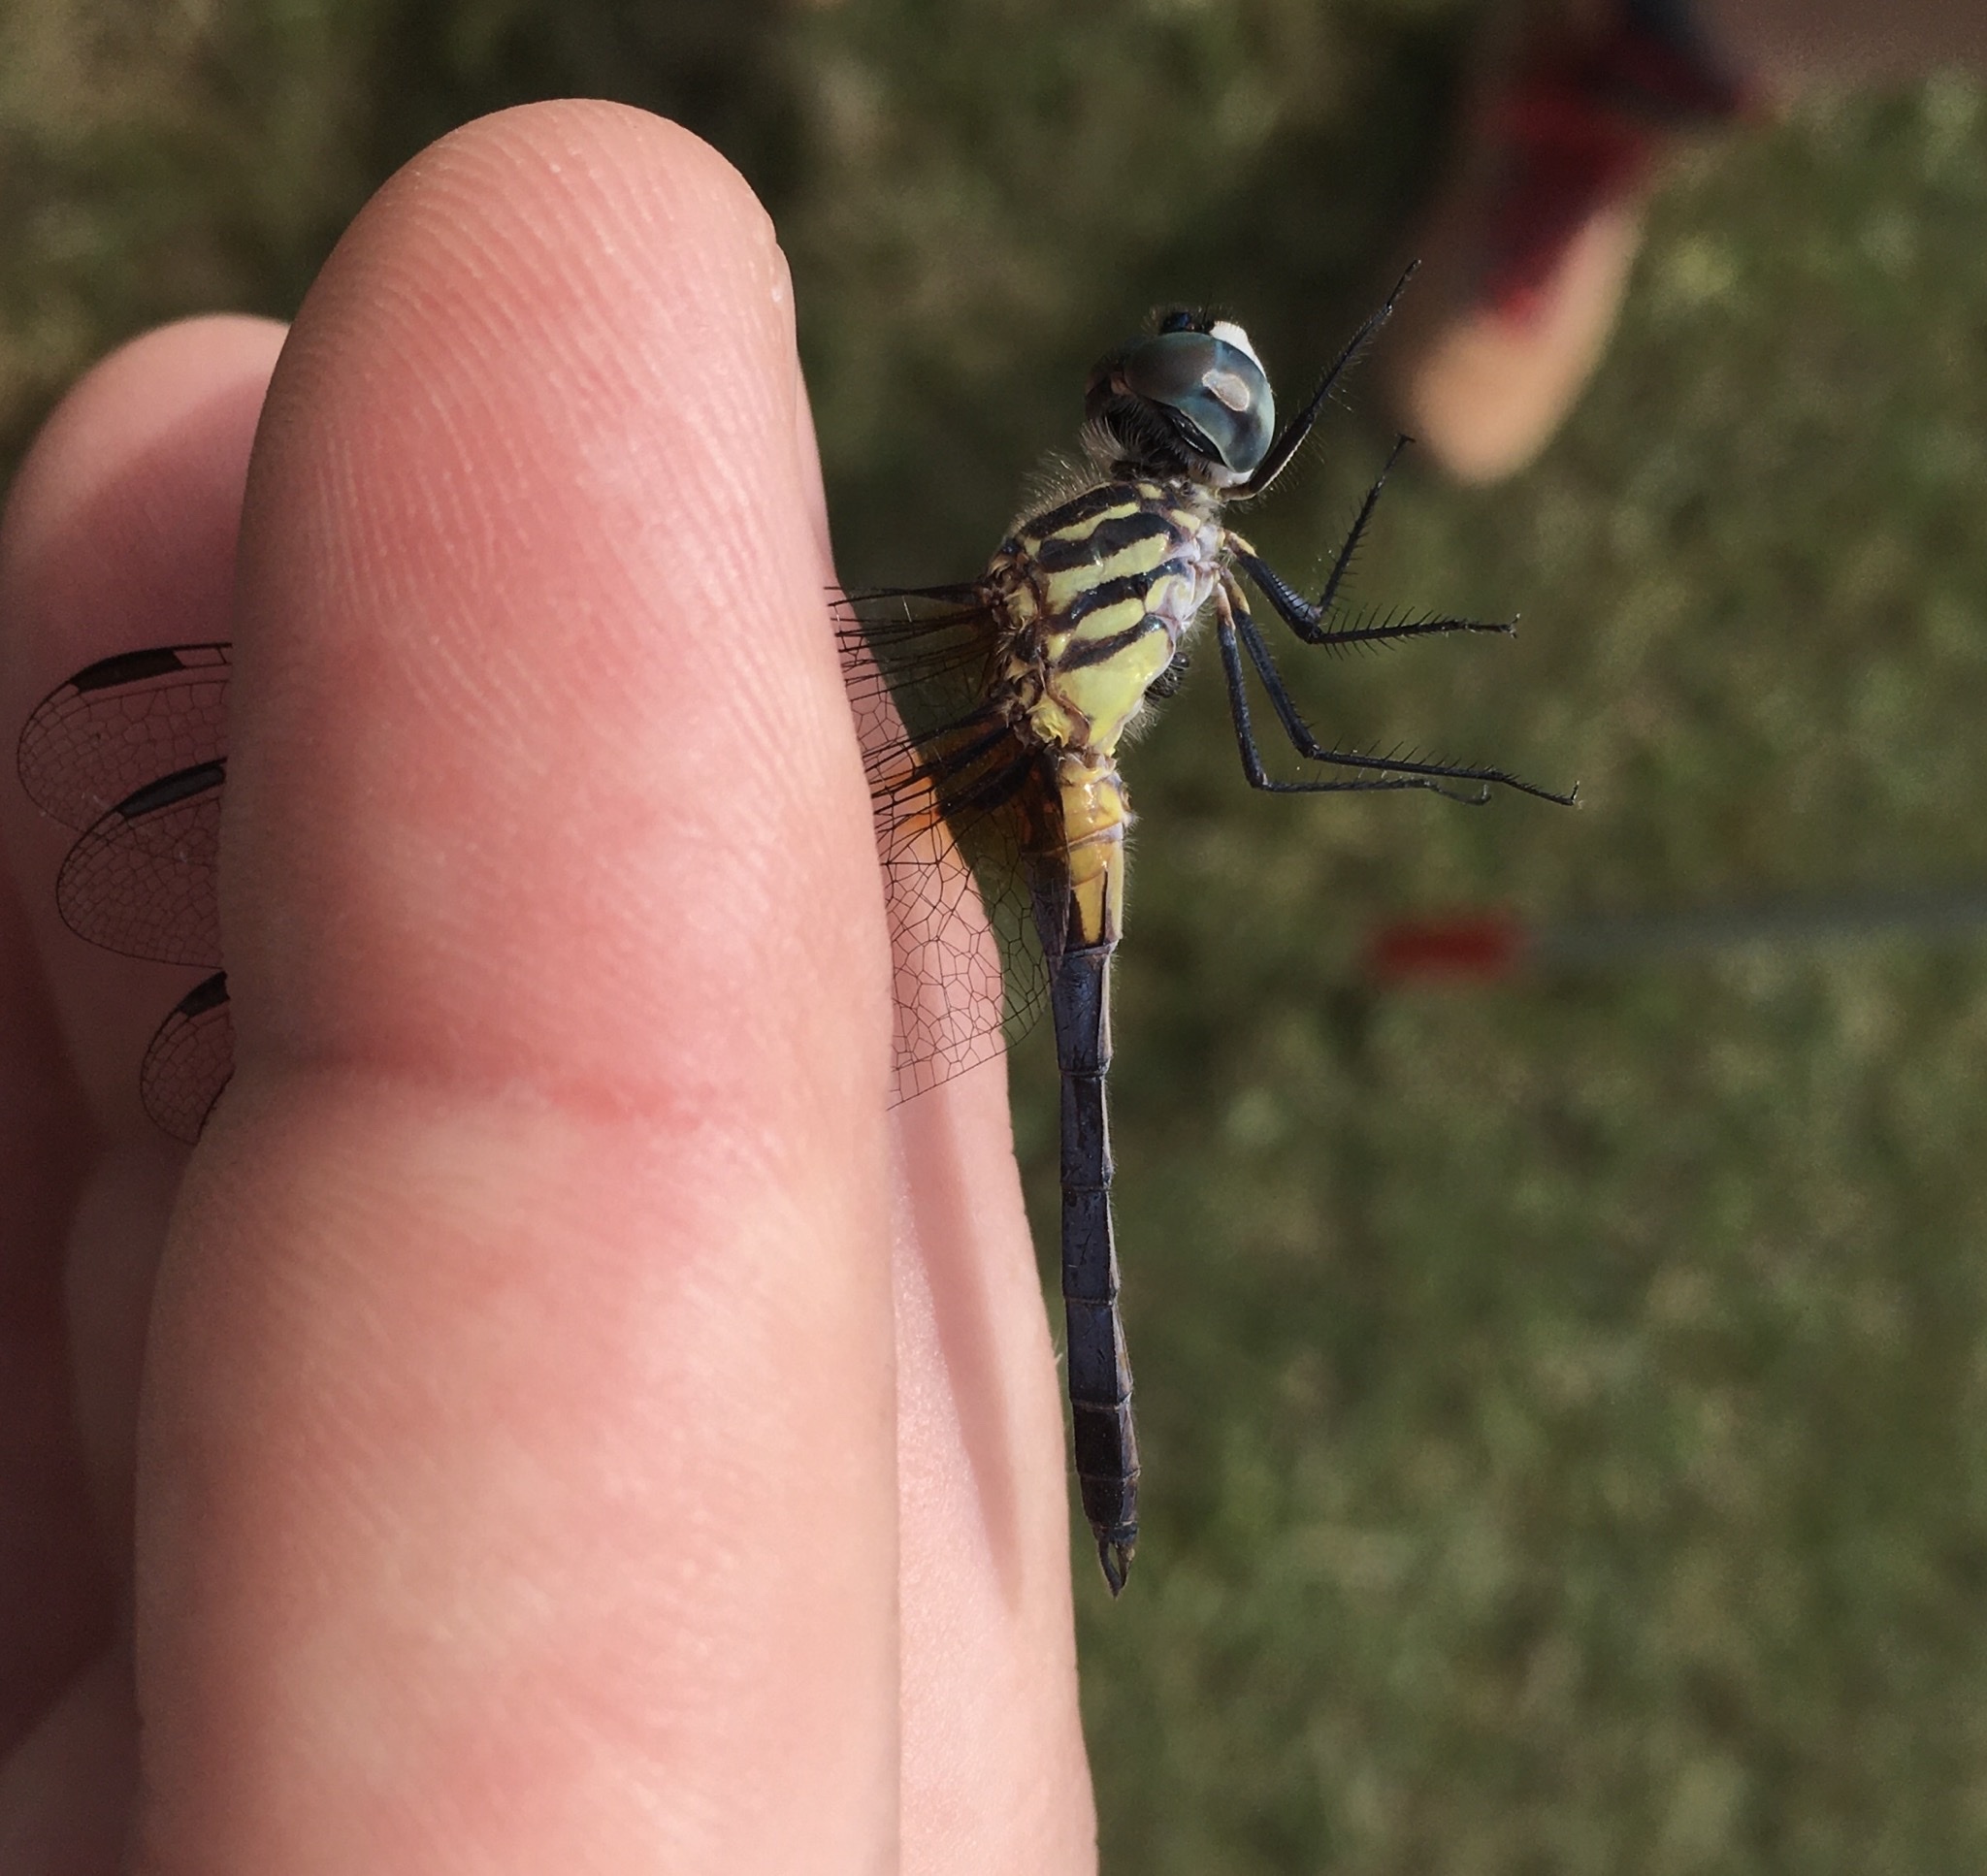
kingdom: Animalia
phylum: Arthropoda
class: Insecta
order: Odonata
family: Libellulidae
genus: Pachydiplax
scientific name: Pachydiplax longipennis
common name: Blue dasher
